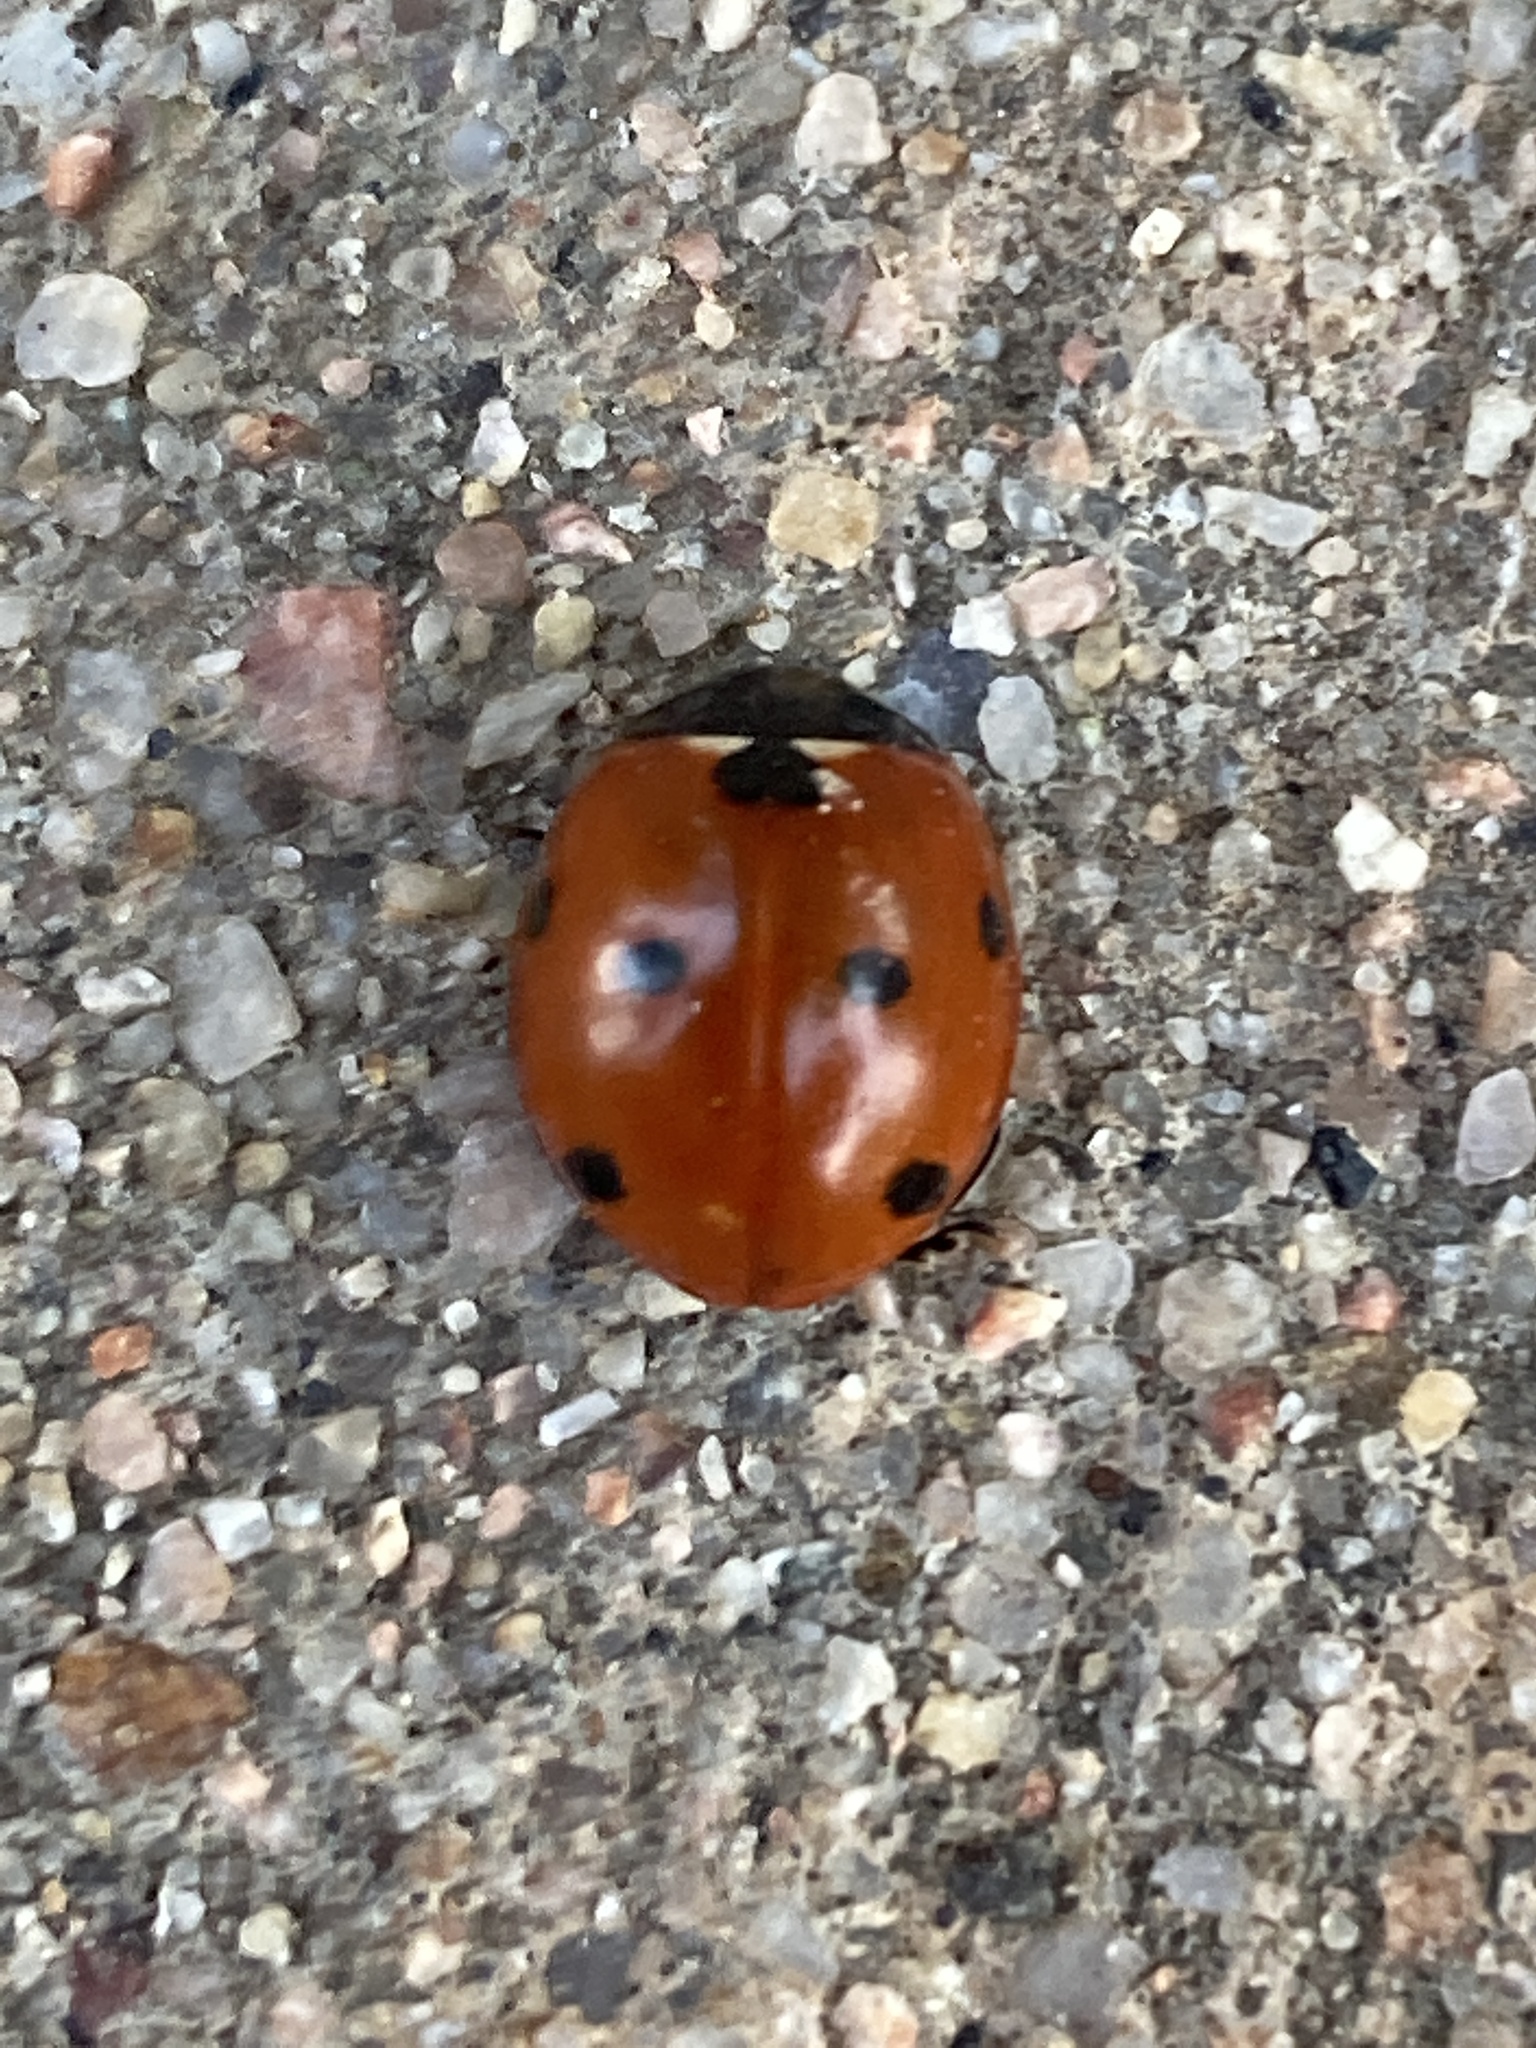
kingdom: Animalia
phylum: Arthropoda
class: Insecta
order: Coleoptera
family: Coccinellidae
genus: Coccinella
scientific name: Coccinella septempunctata
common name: Sevenspotted lady beetle
